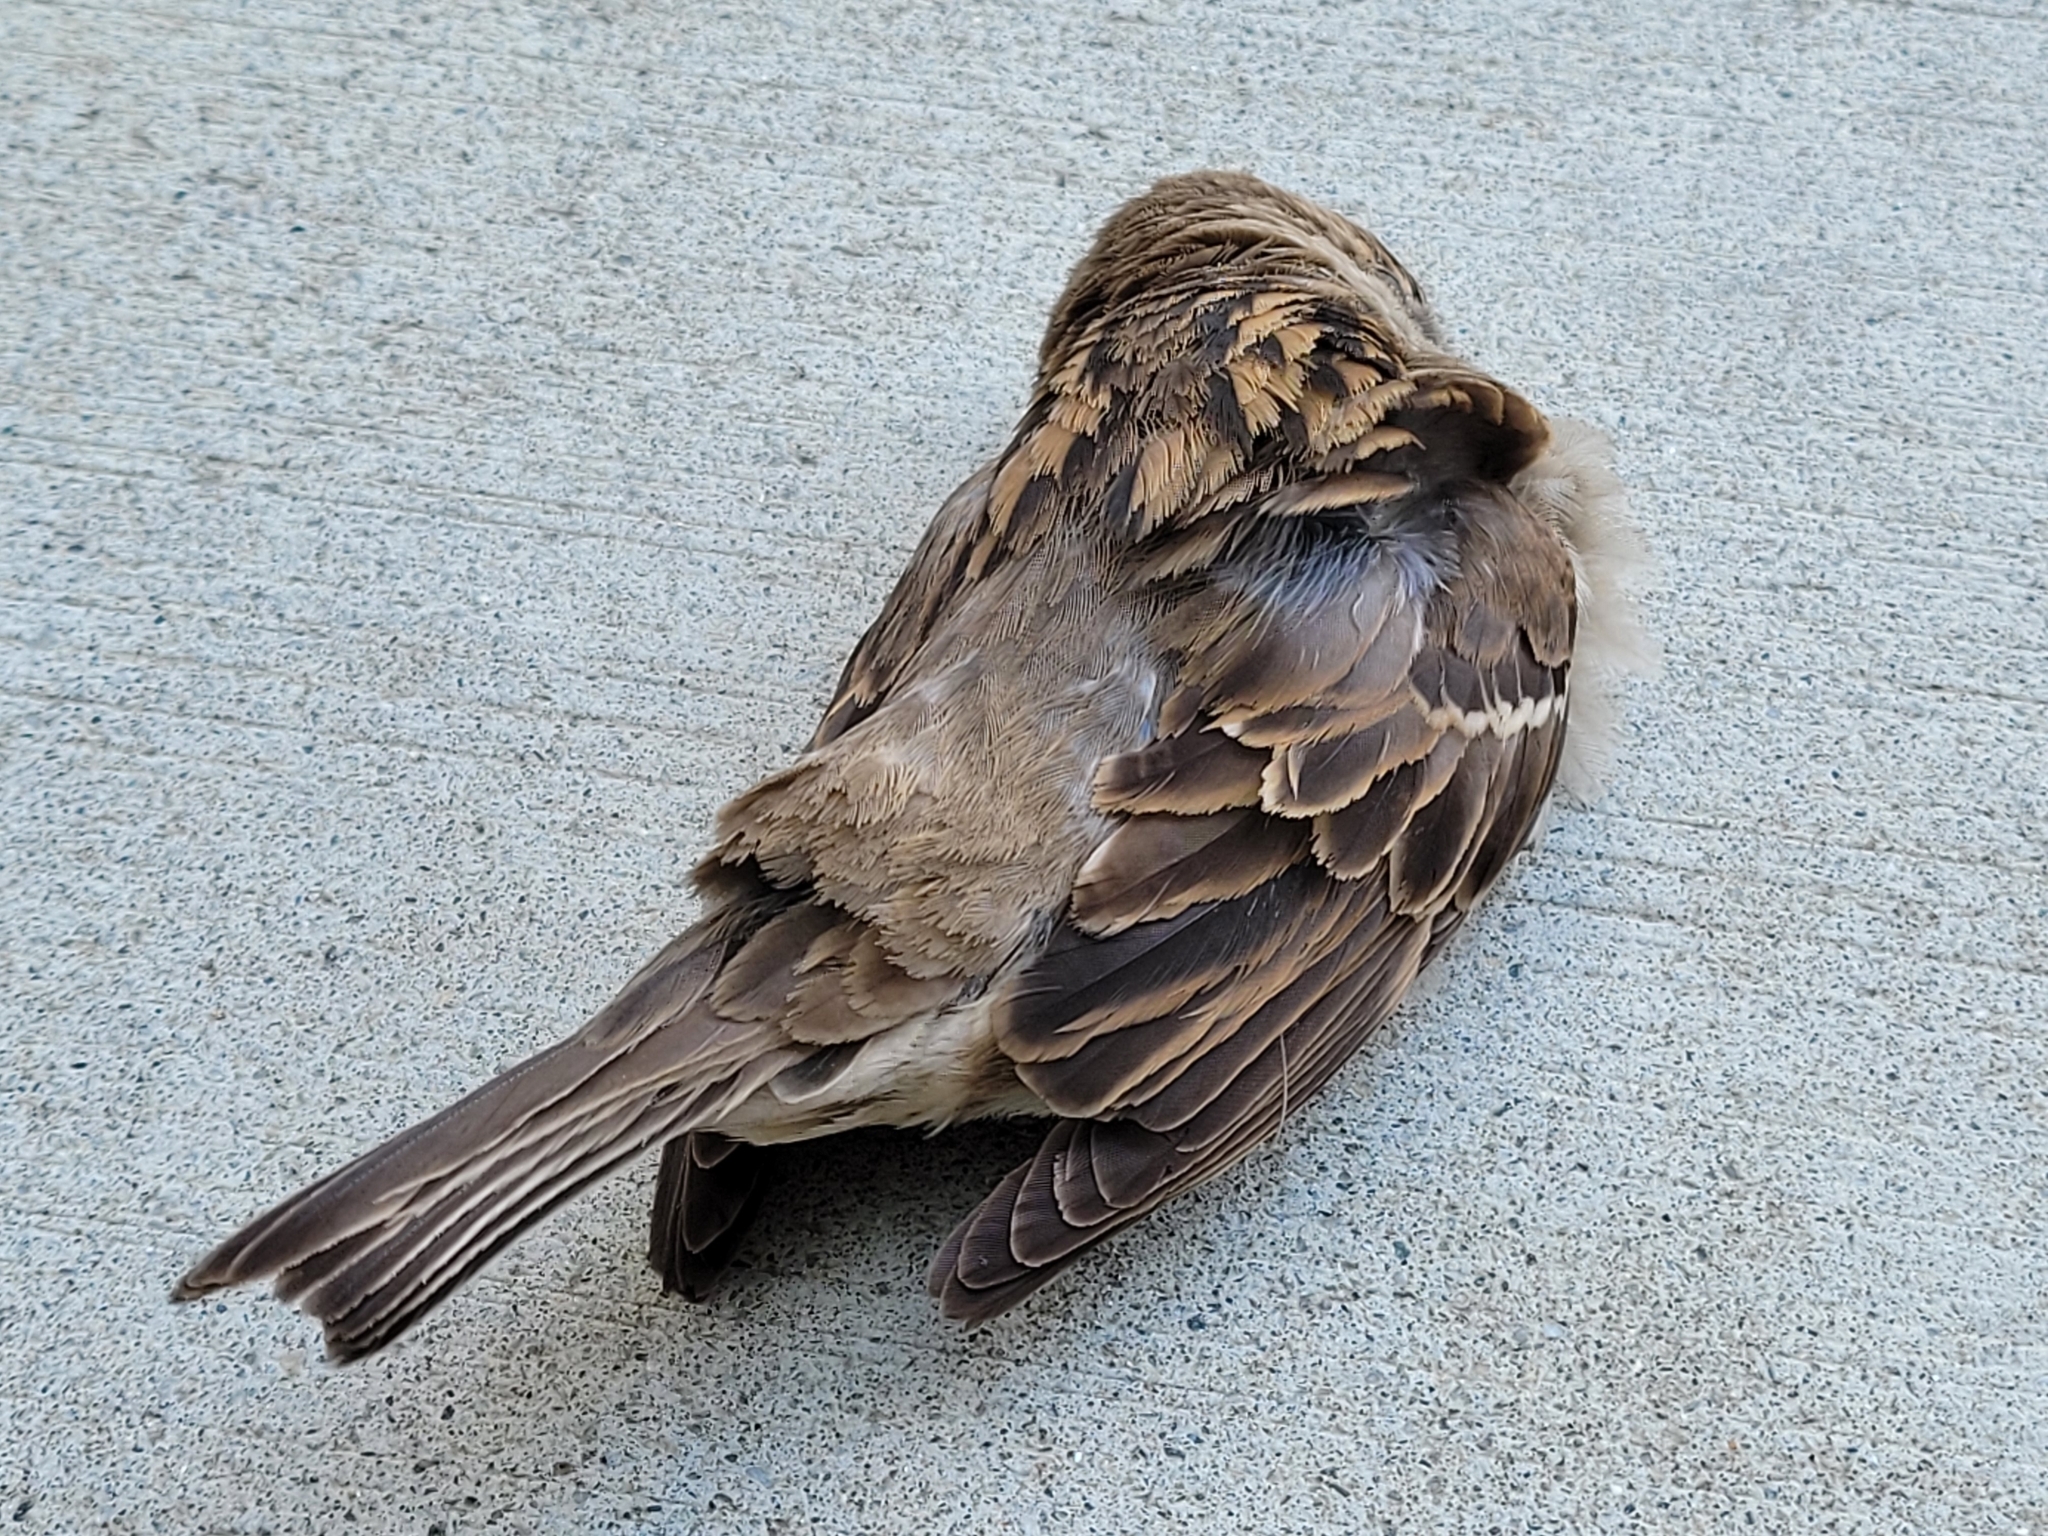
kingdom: Animalia
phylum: Chordata
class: Aves
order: Passeriformes
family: Passeridae
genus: Passer
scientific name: Passer domesticus
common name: House sparrow
